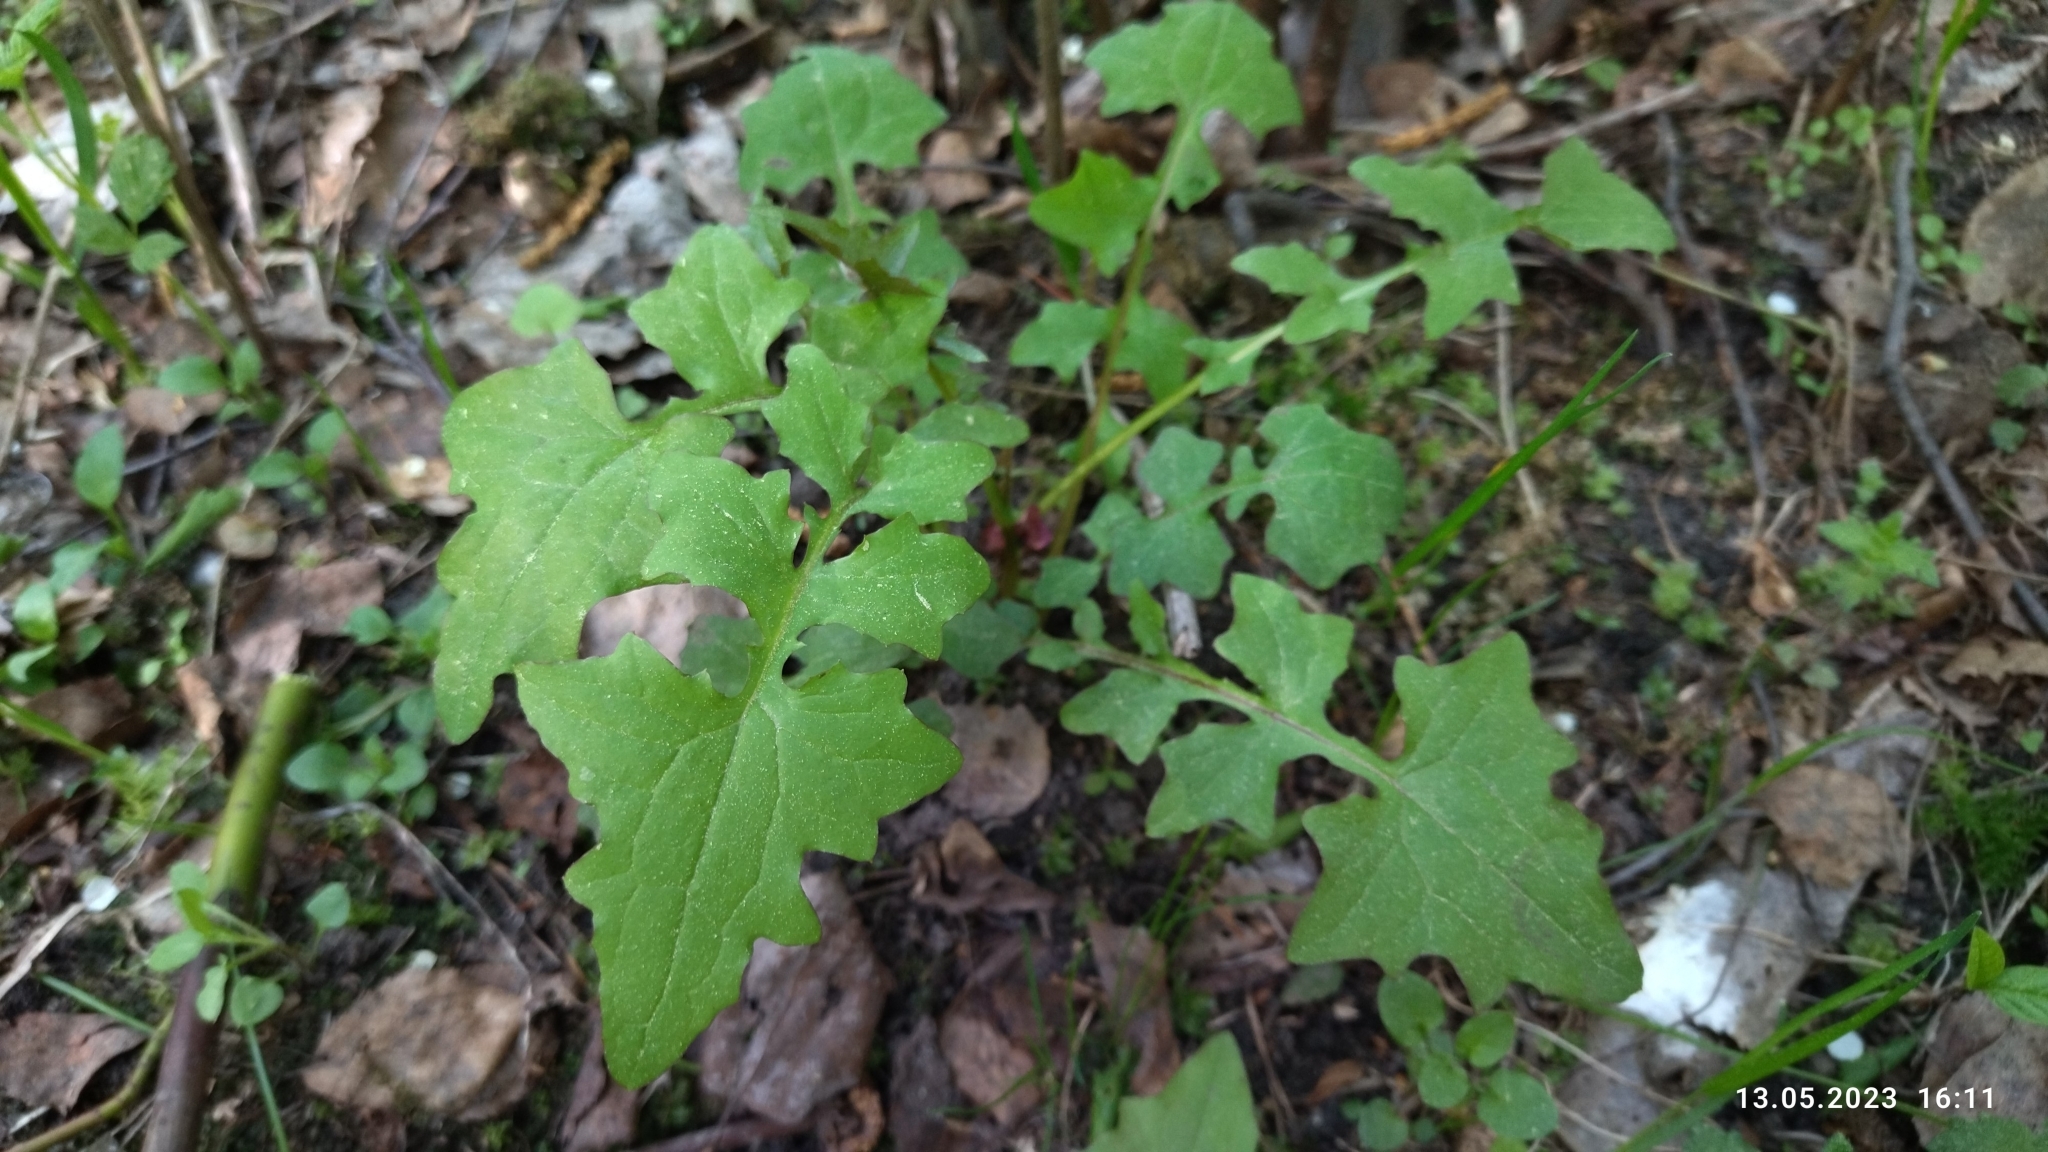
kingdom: Plantae
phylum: Tracheophyta
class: Magnoliopsida
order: Asterales
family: Asteraceae
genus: Mycelis
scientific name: Mycelis muralis
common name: Wall lettuce
